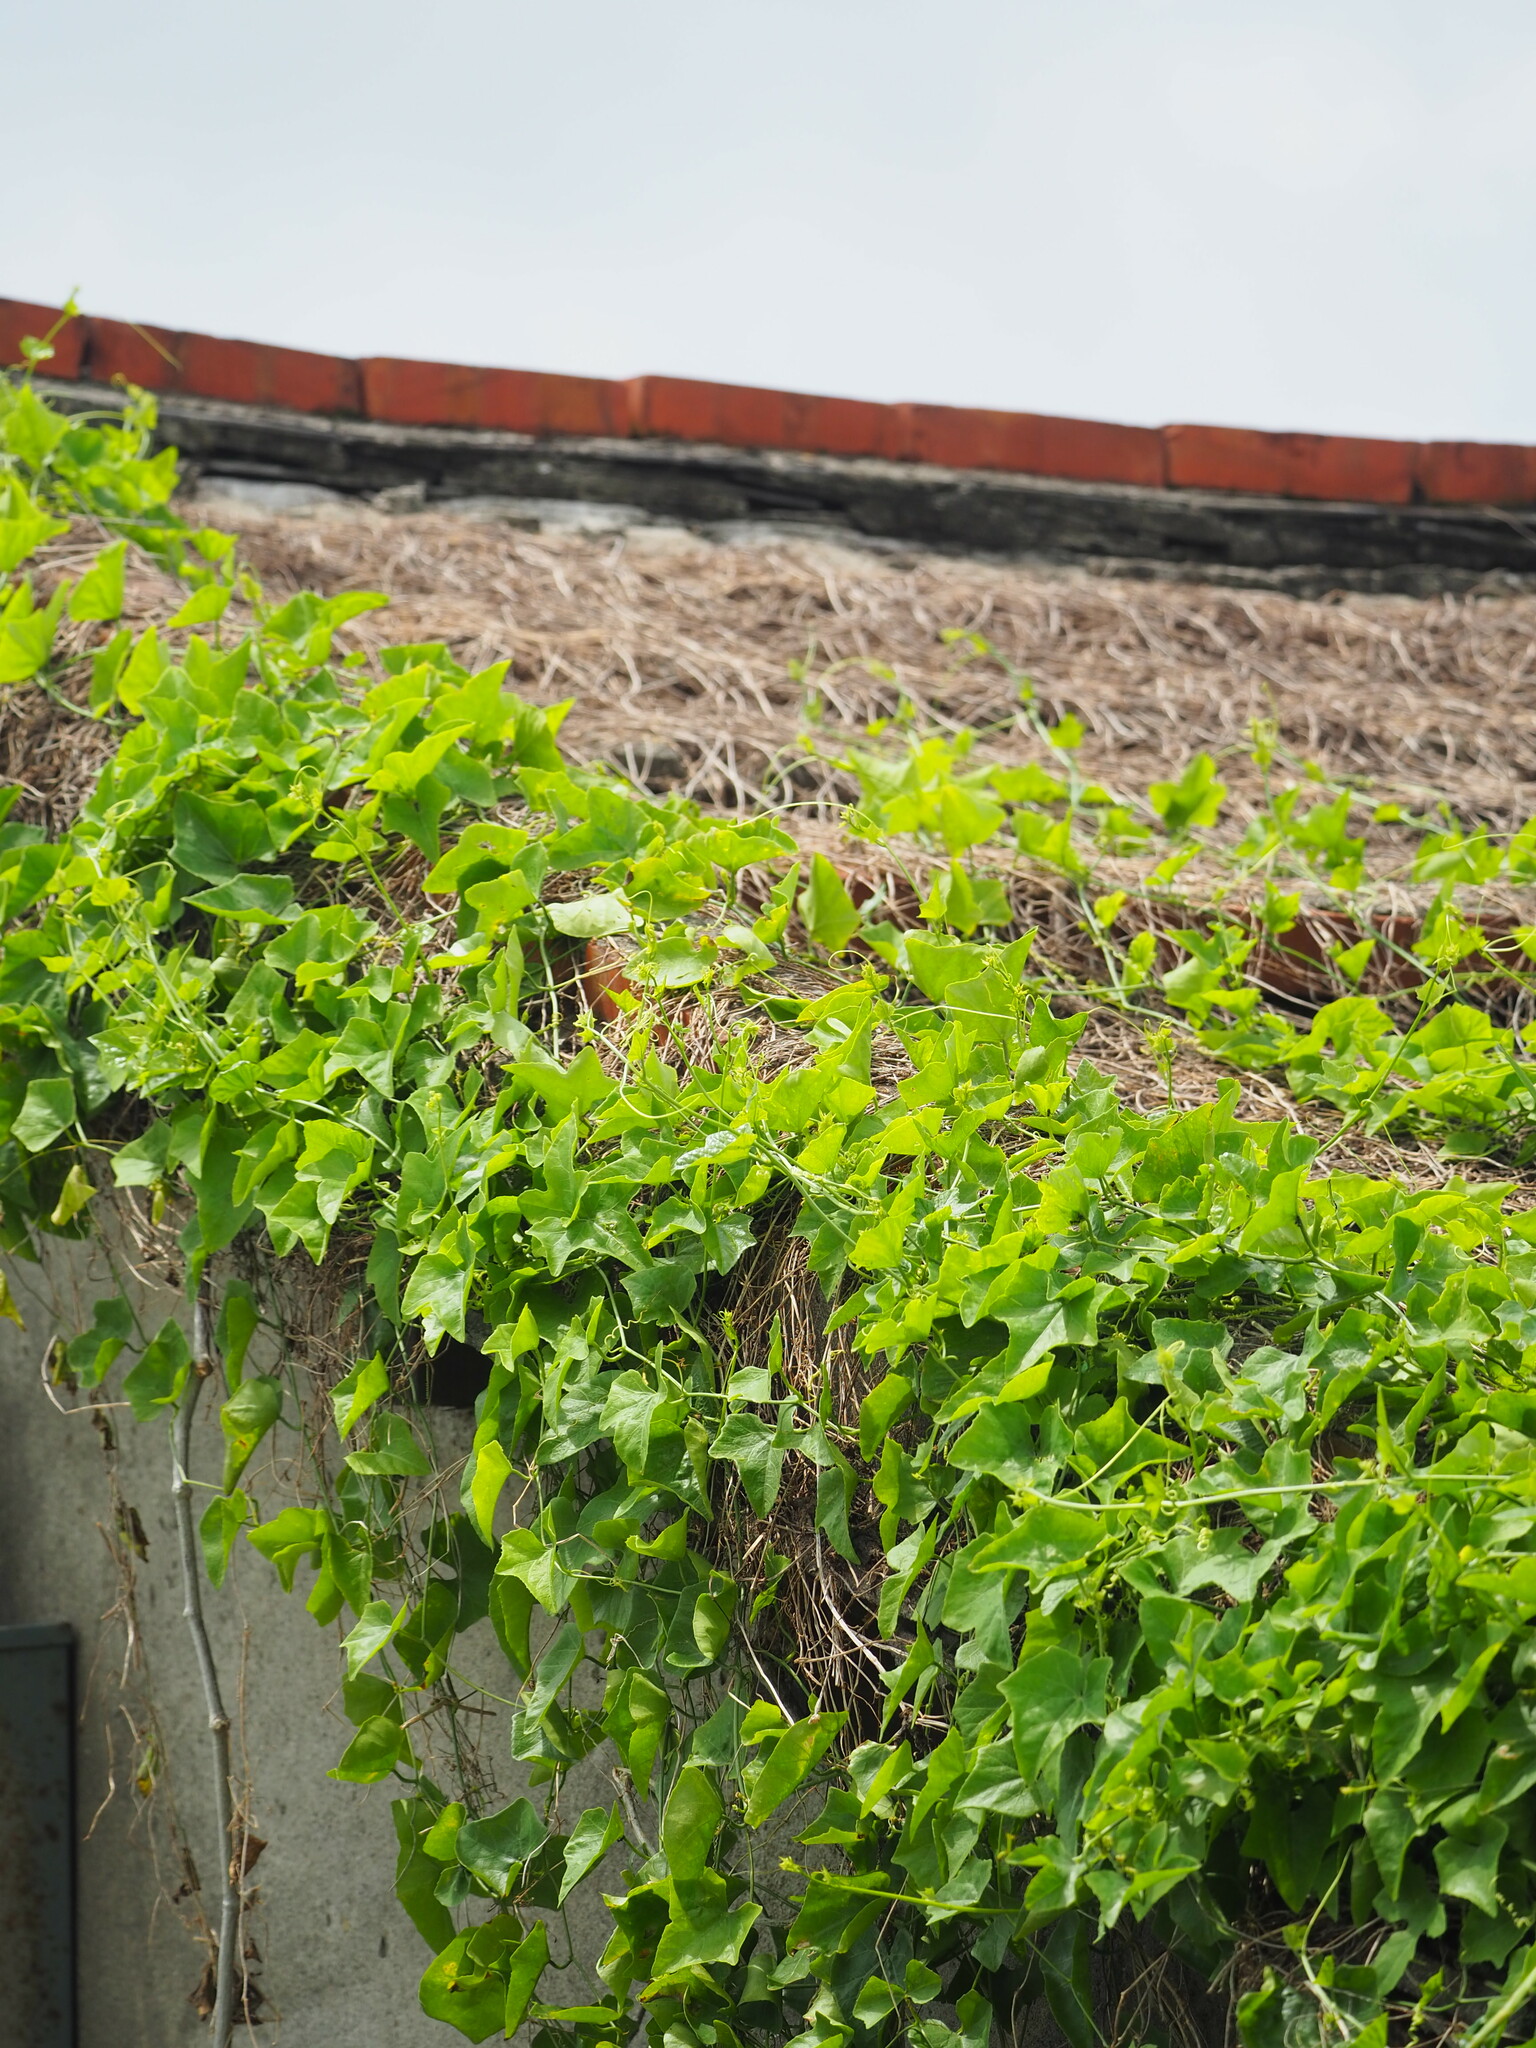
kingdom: Plantae
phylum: Tracheophyta
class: Magnoliopsida
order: Cucurbitales
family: Cucurbitaceae
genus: Coccinia
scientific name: Coccinia grandis
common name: Ivy gourd
